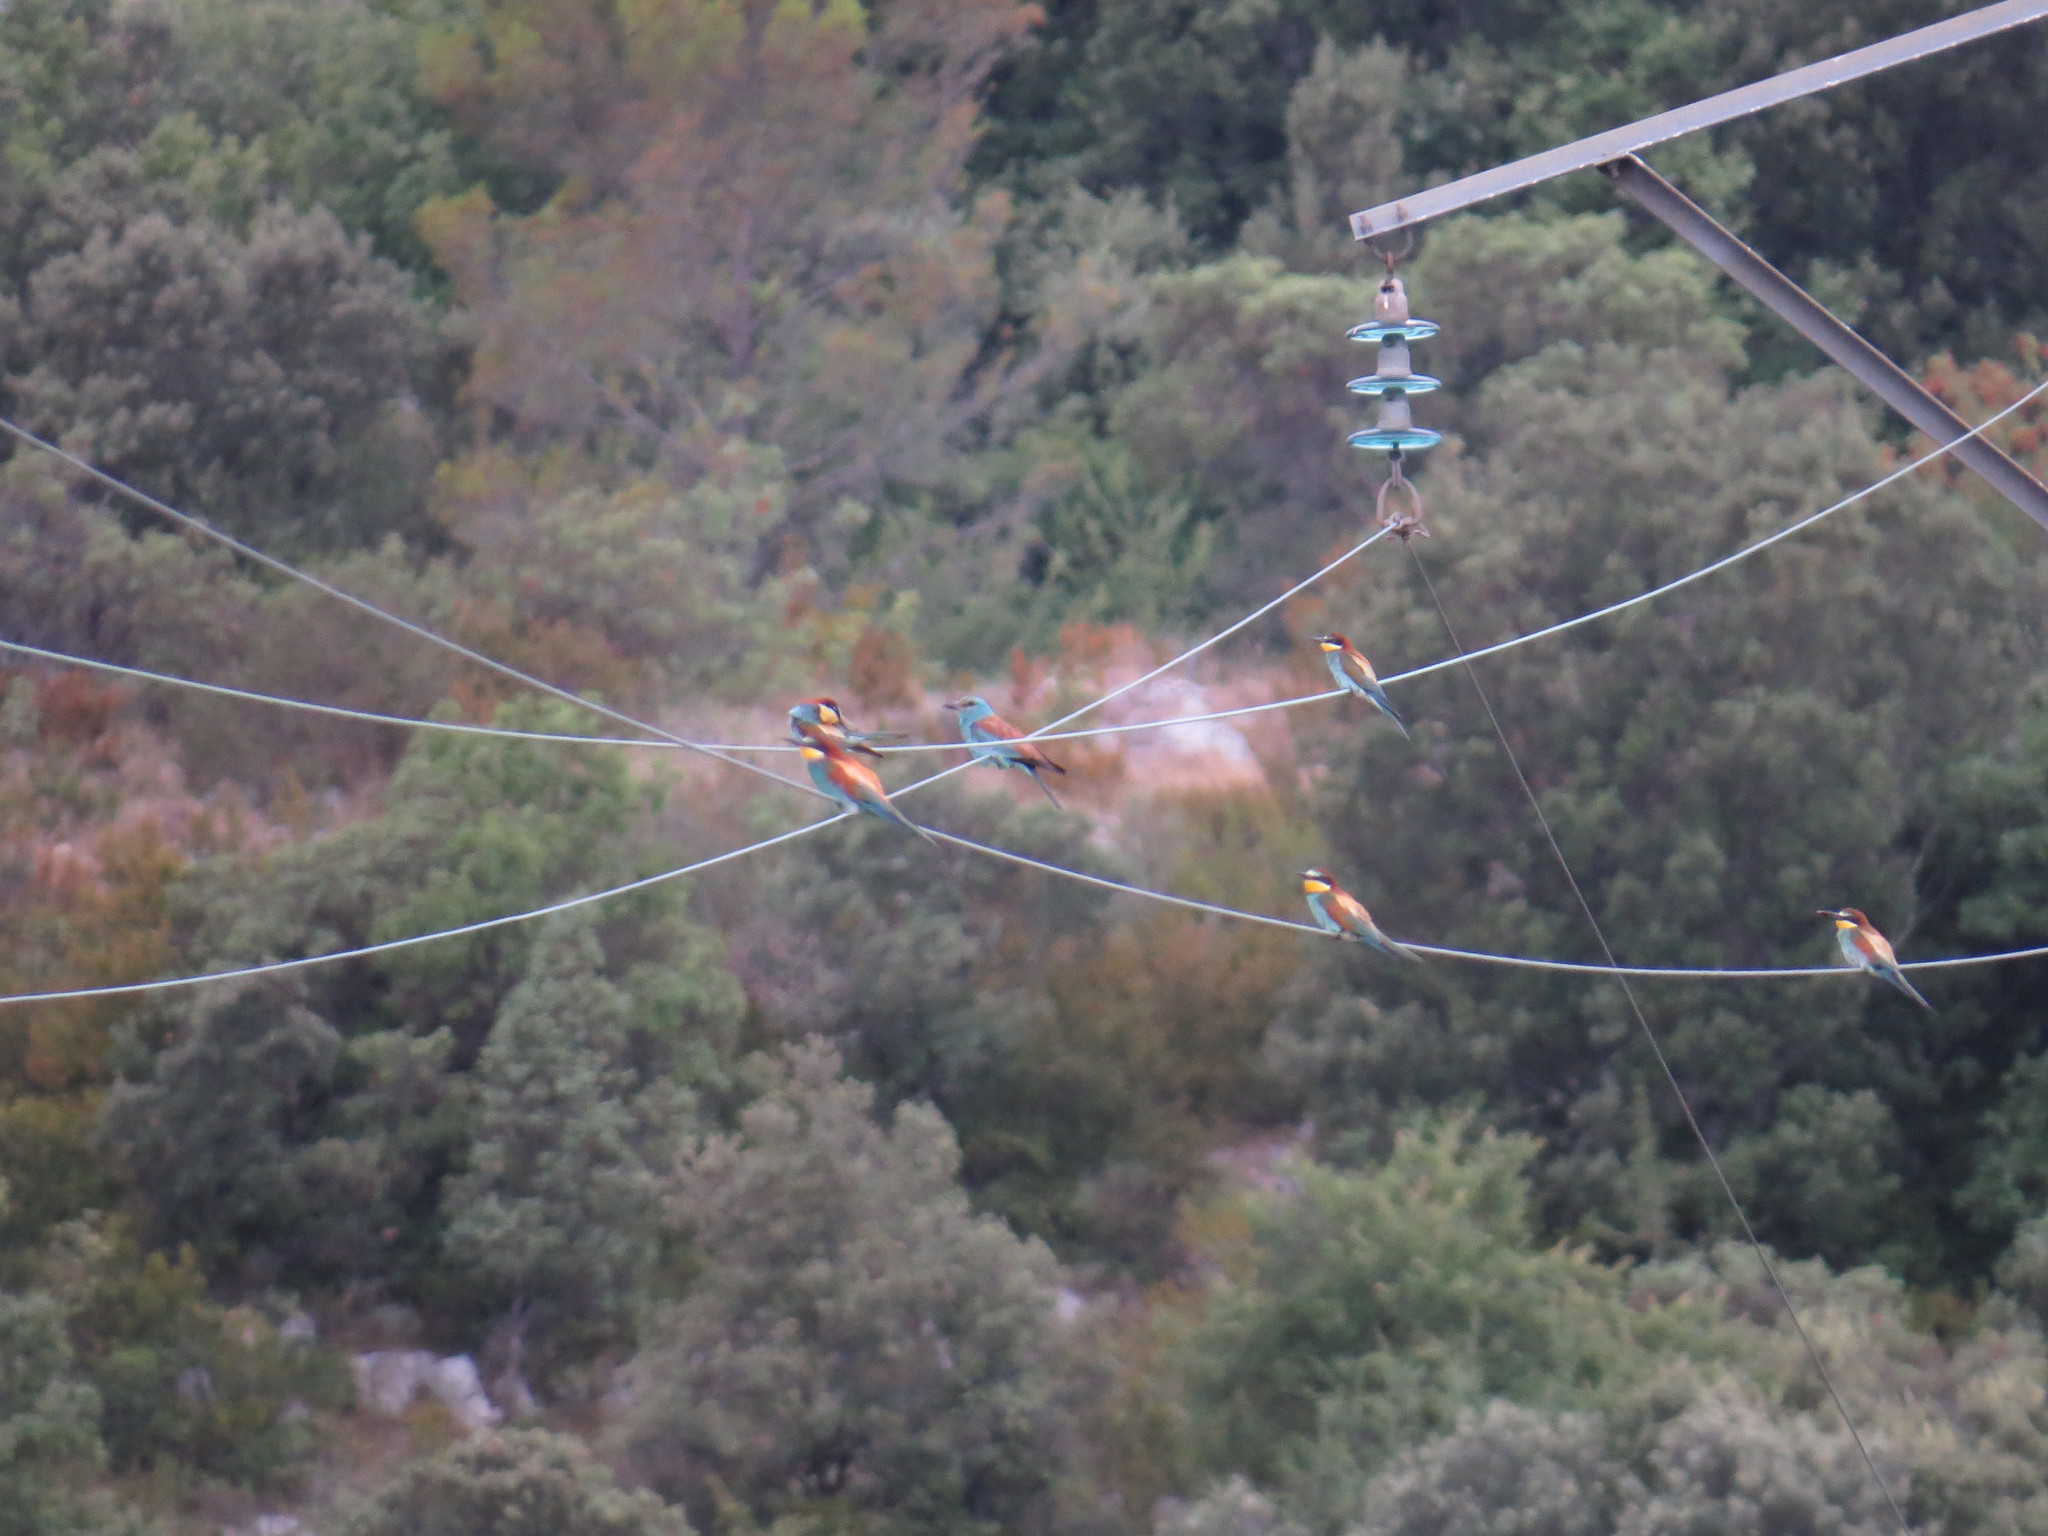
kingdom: Animalia
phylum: Chordata
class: Aves
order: Coraciiformes
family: Coraciidae
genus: Coracias
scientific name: Coracias garrulus
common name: European roller
